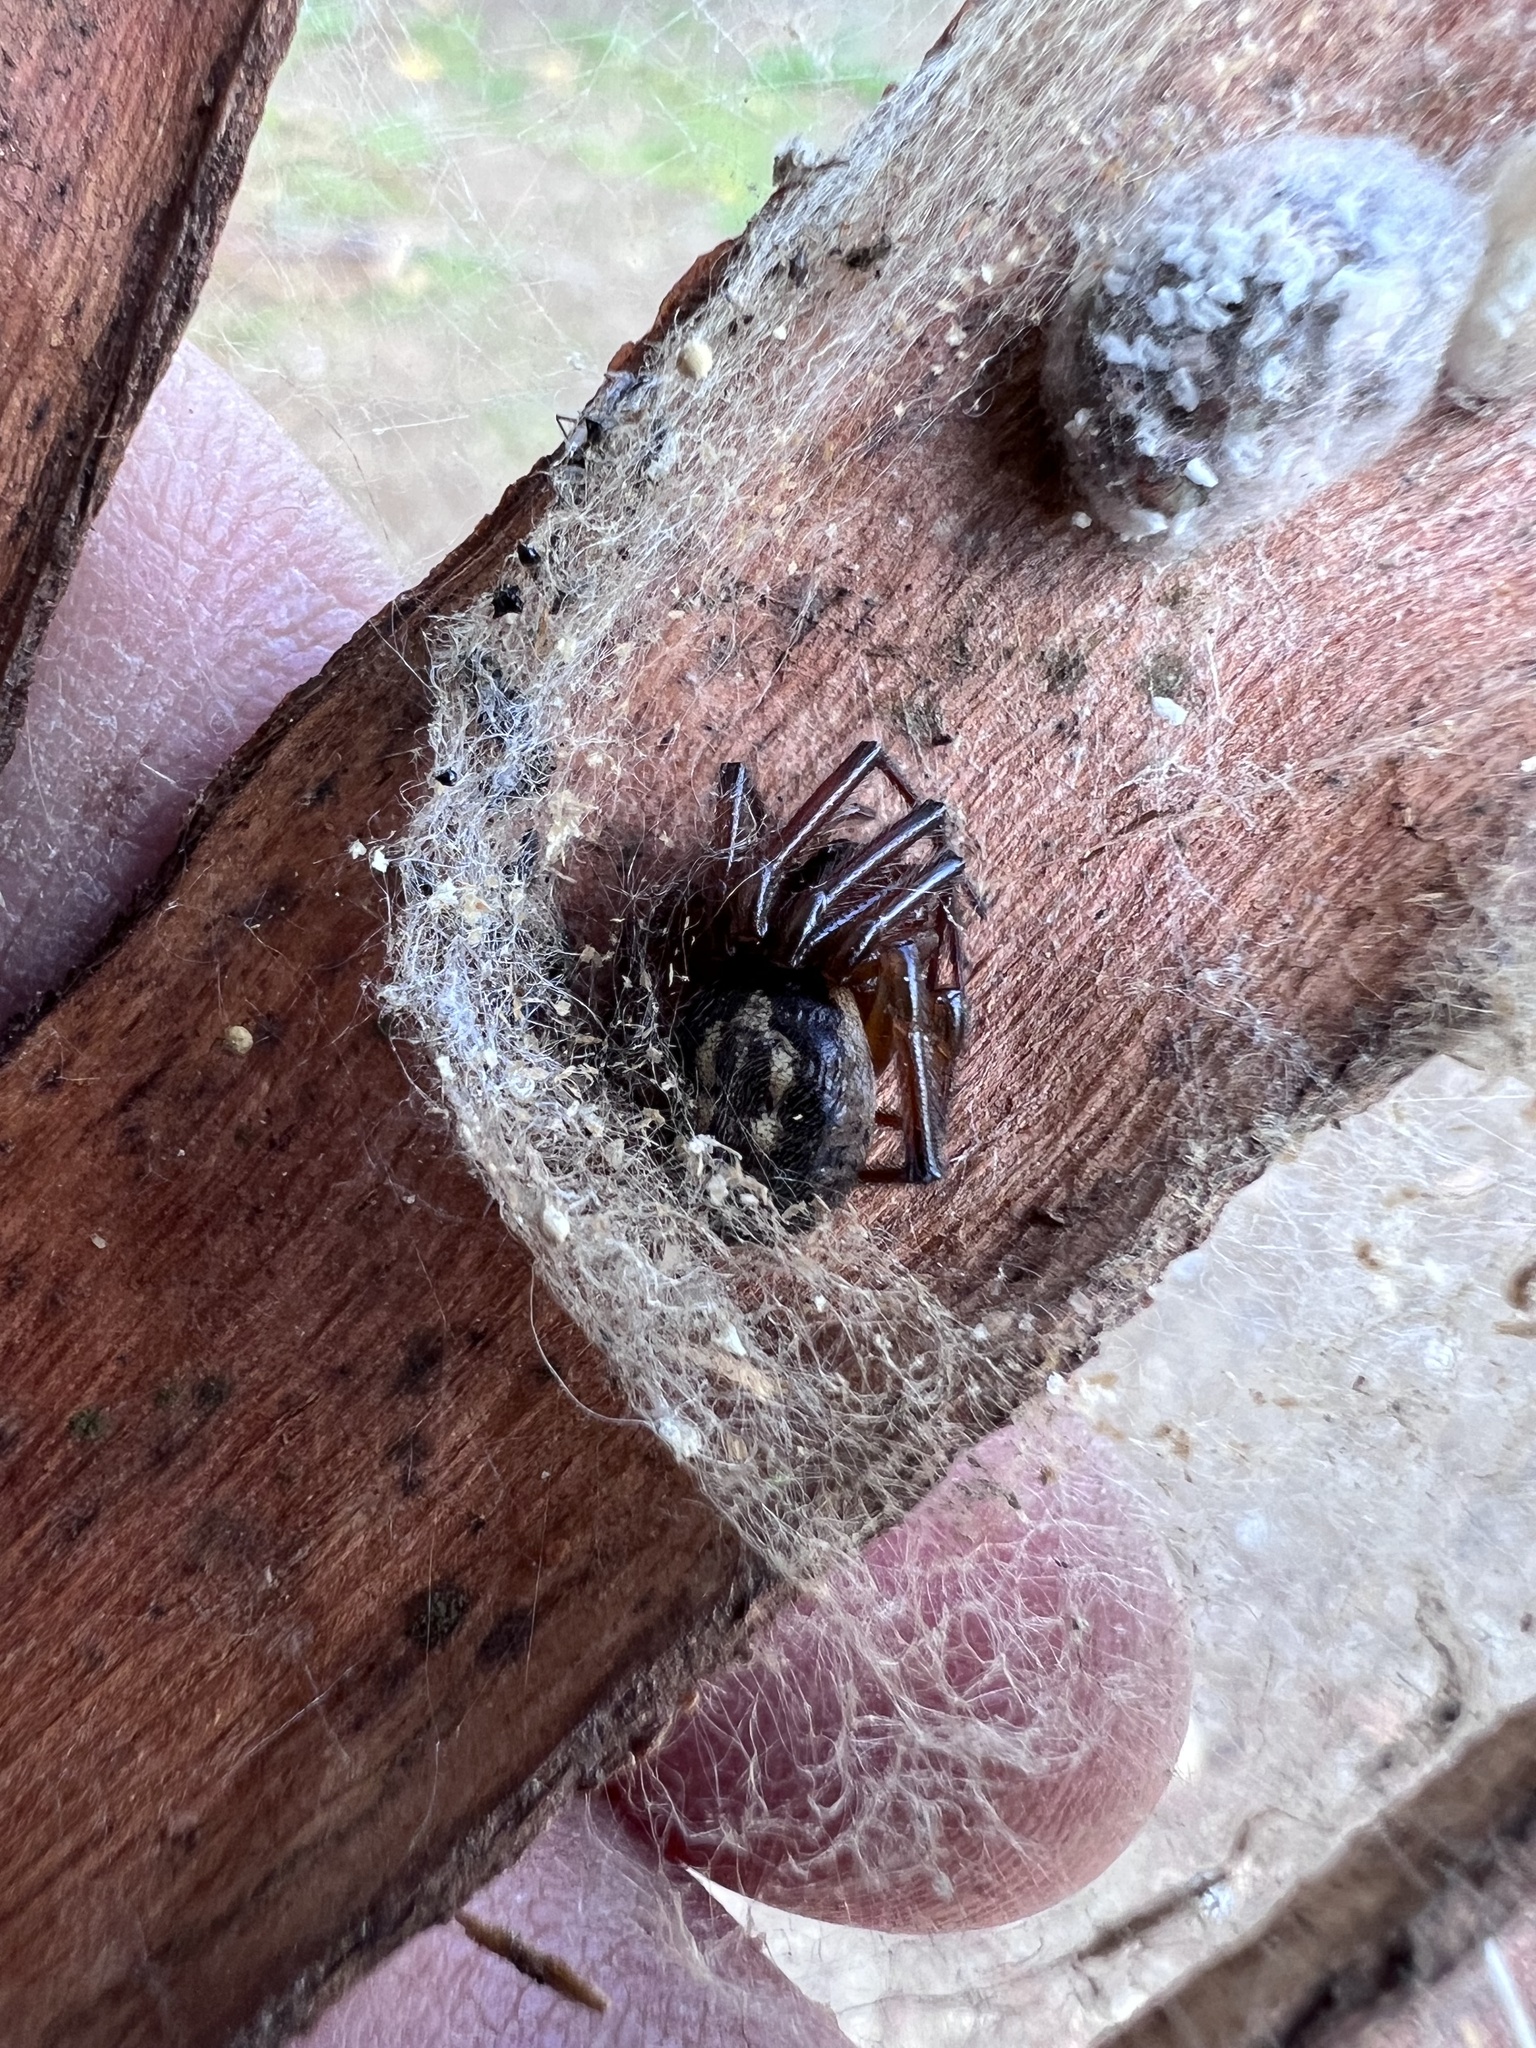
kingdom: Animalia
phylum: Arthropoda
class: Arachnida
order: Araneae
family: Theridiidae
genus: Steatoda
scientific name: Steatoda nobilis
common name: Cobweb weaver
